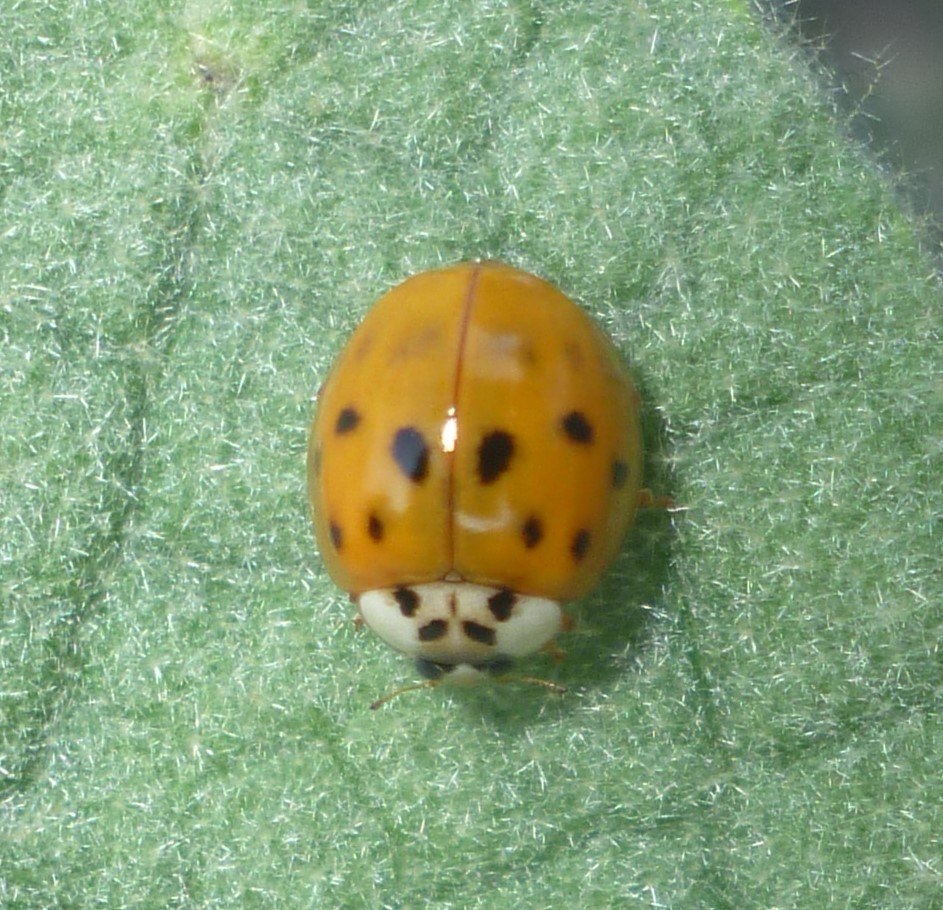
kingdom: Animalia
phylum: Arthropoda
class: Insecta
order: Coleoptera
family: Coccinellidae
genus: Harmonia
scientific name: Harmonia axyridis
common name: Harlequin ladybird
